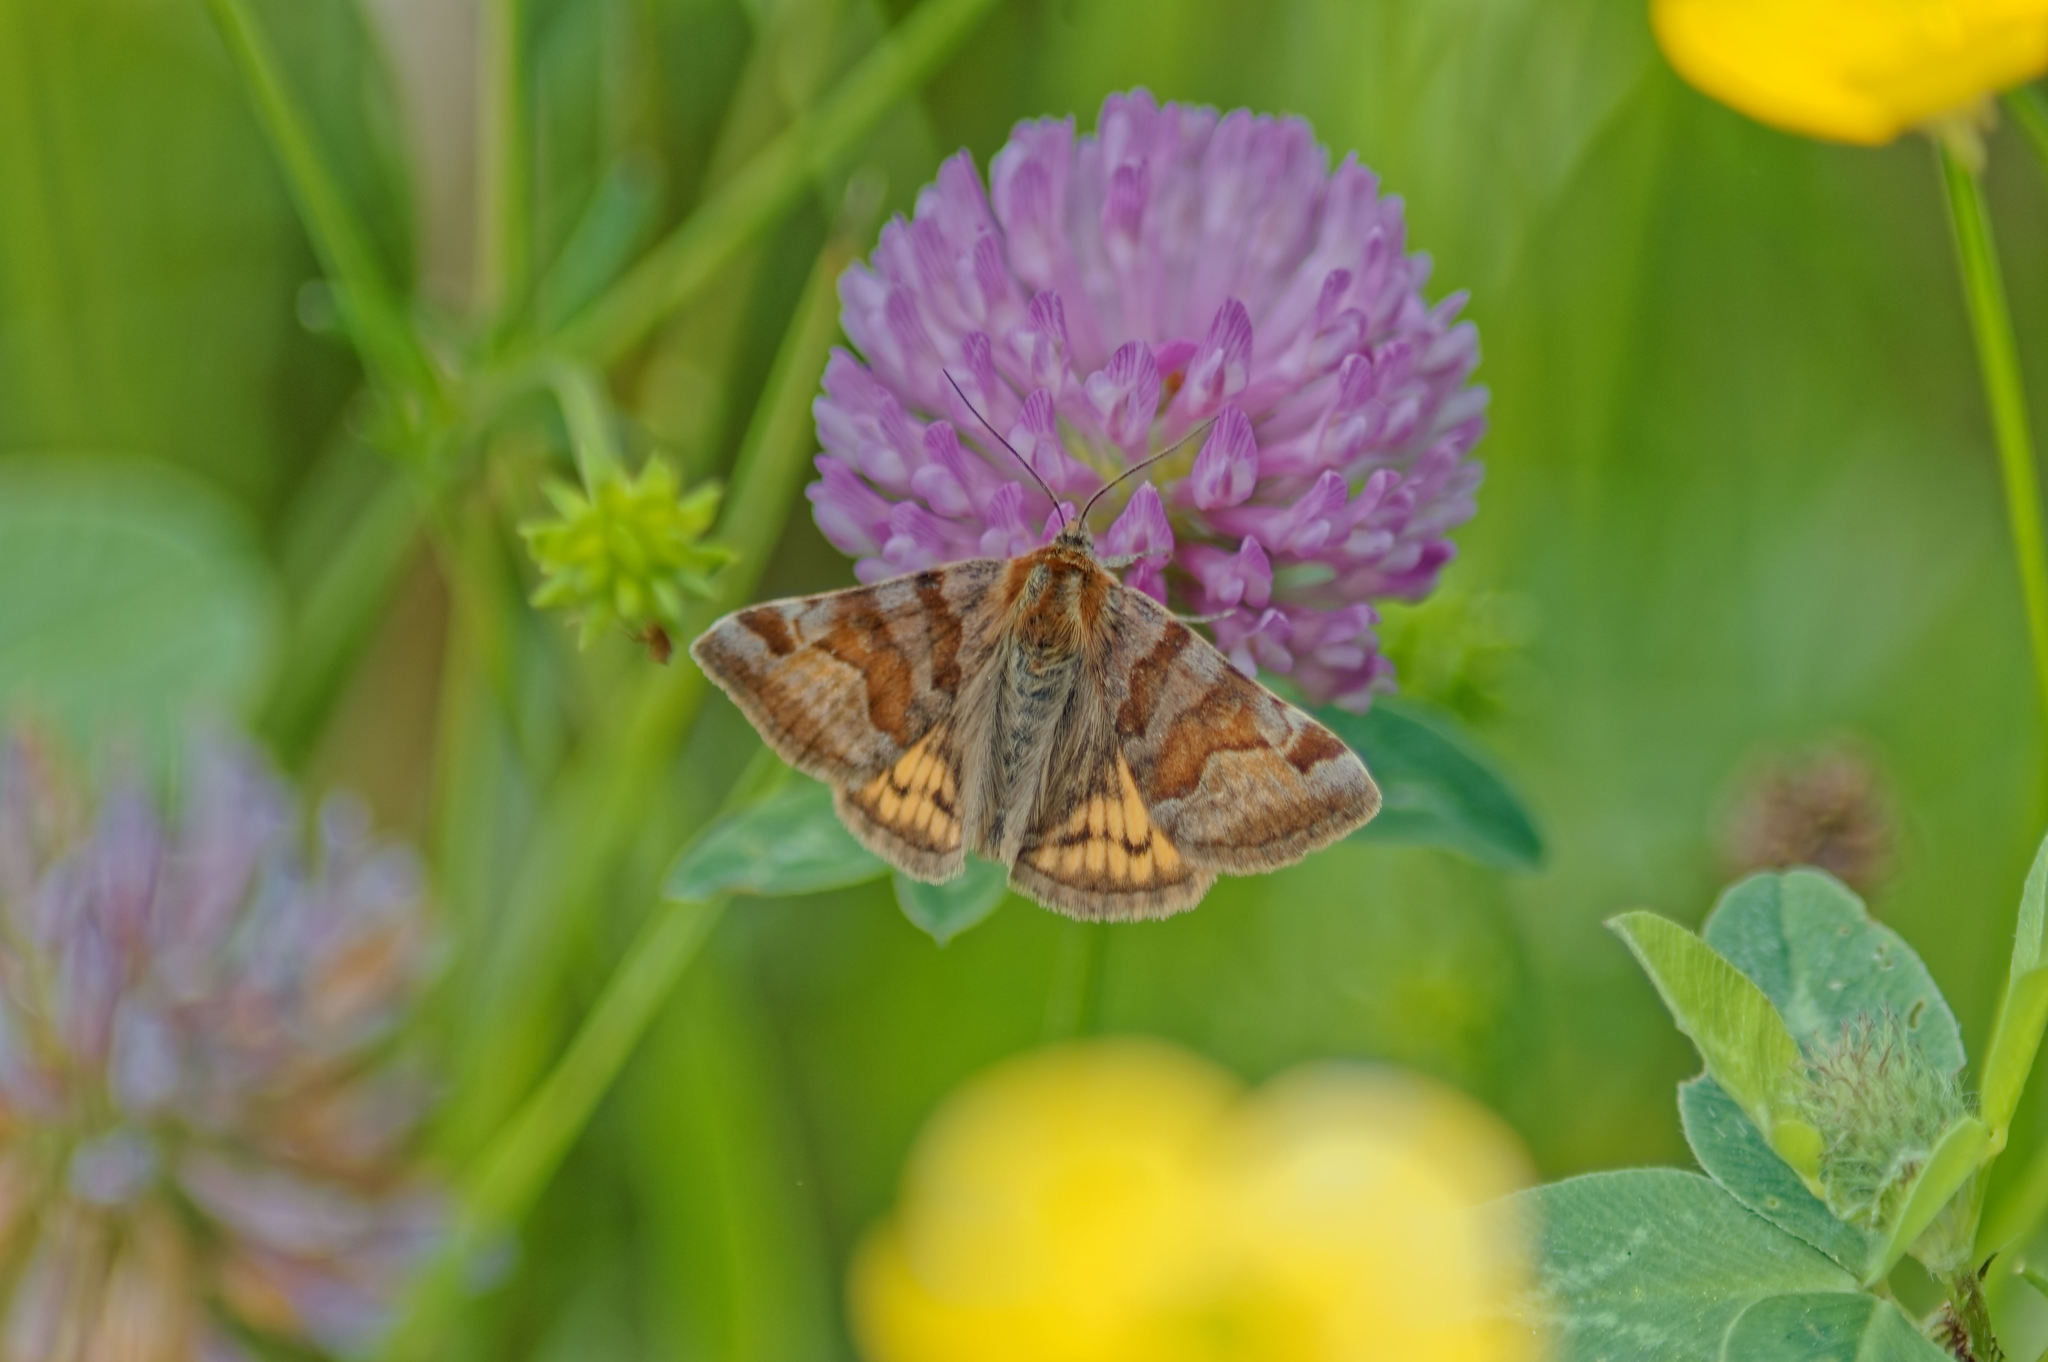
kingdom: Animalia
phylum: Arthropoda
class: Insecta
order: Lepidoptera
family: Erebidae
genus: Euclidia
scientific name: Euclidia glyphica
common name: Burnet companion
